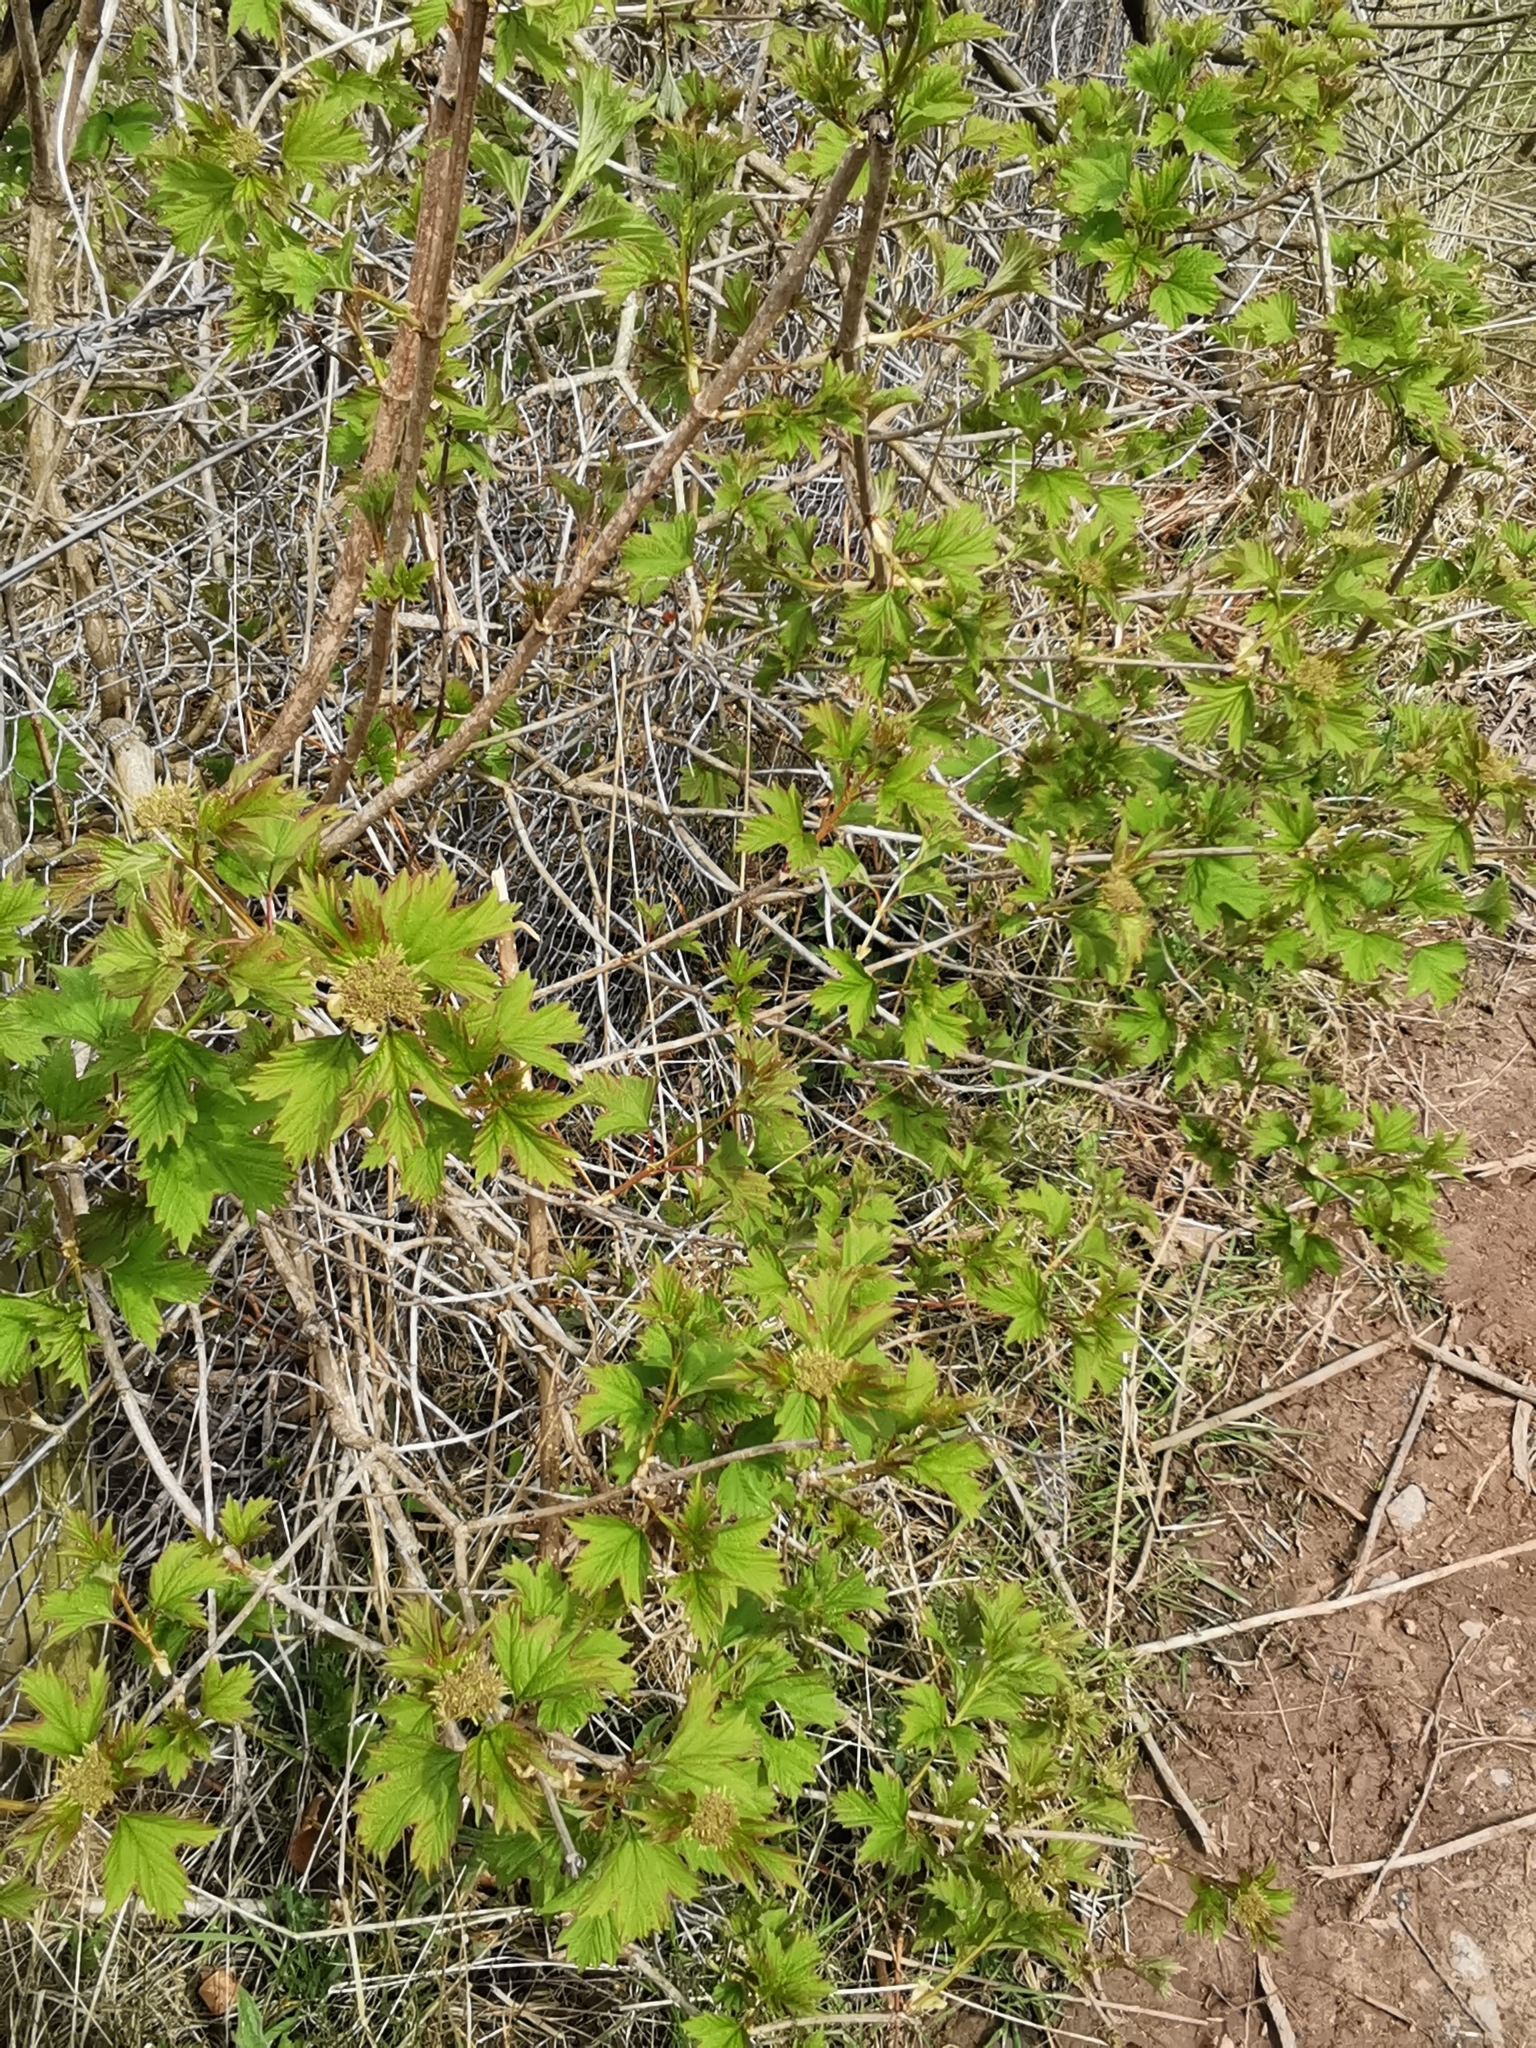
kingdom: Plantae
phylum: Tracheophyta
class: Magnoliopsida
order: Dipsacales
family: Viburnaceae
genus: Viburnum
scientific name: Viburnum opulus
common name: Guelder-rose
